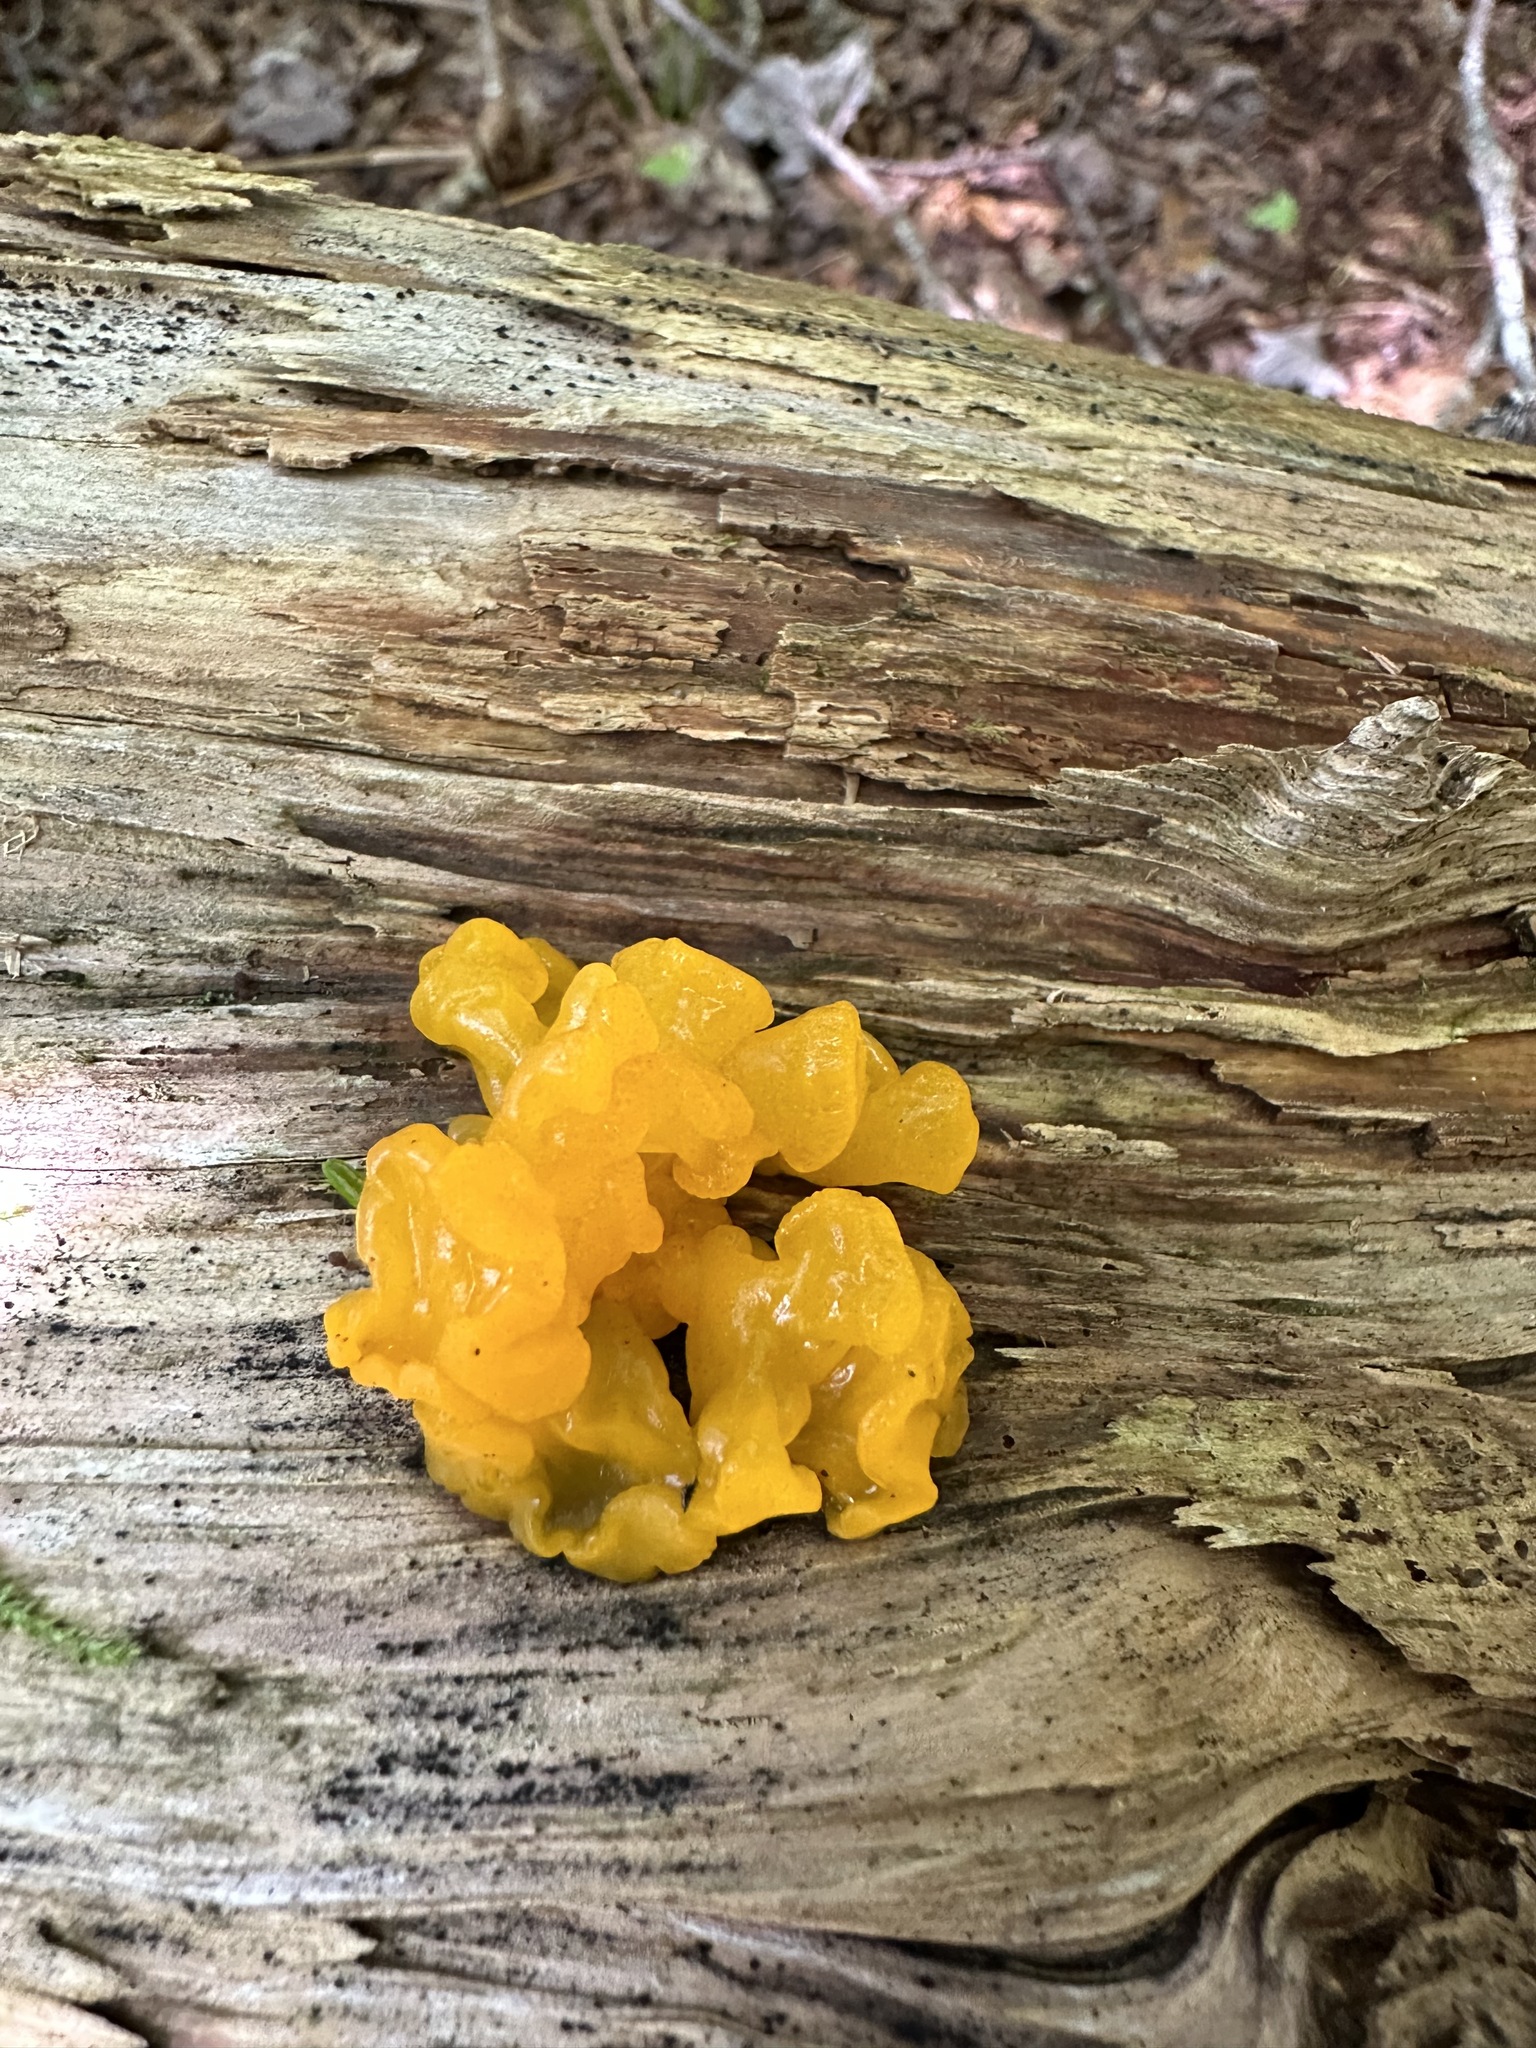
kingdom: Fungi
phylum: Basidiomycota
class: Dacrymycetes
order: Dacrymycetales
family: Dacrymycetaceae
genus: Dacrymyces
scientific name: Dacrymyces chrysospermus
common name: Orange jelly spot
